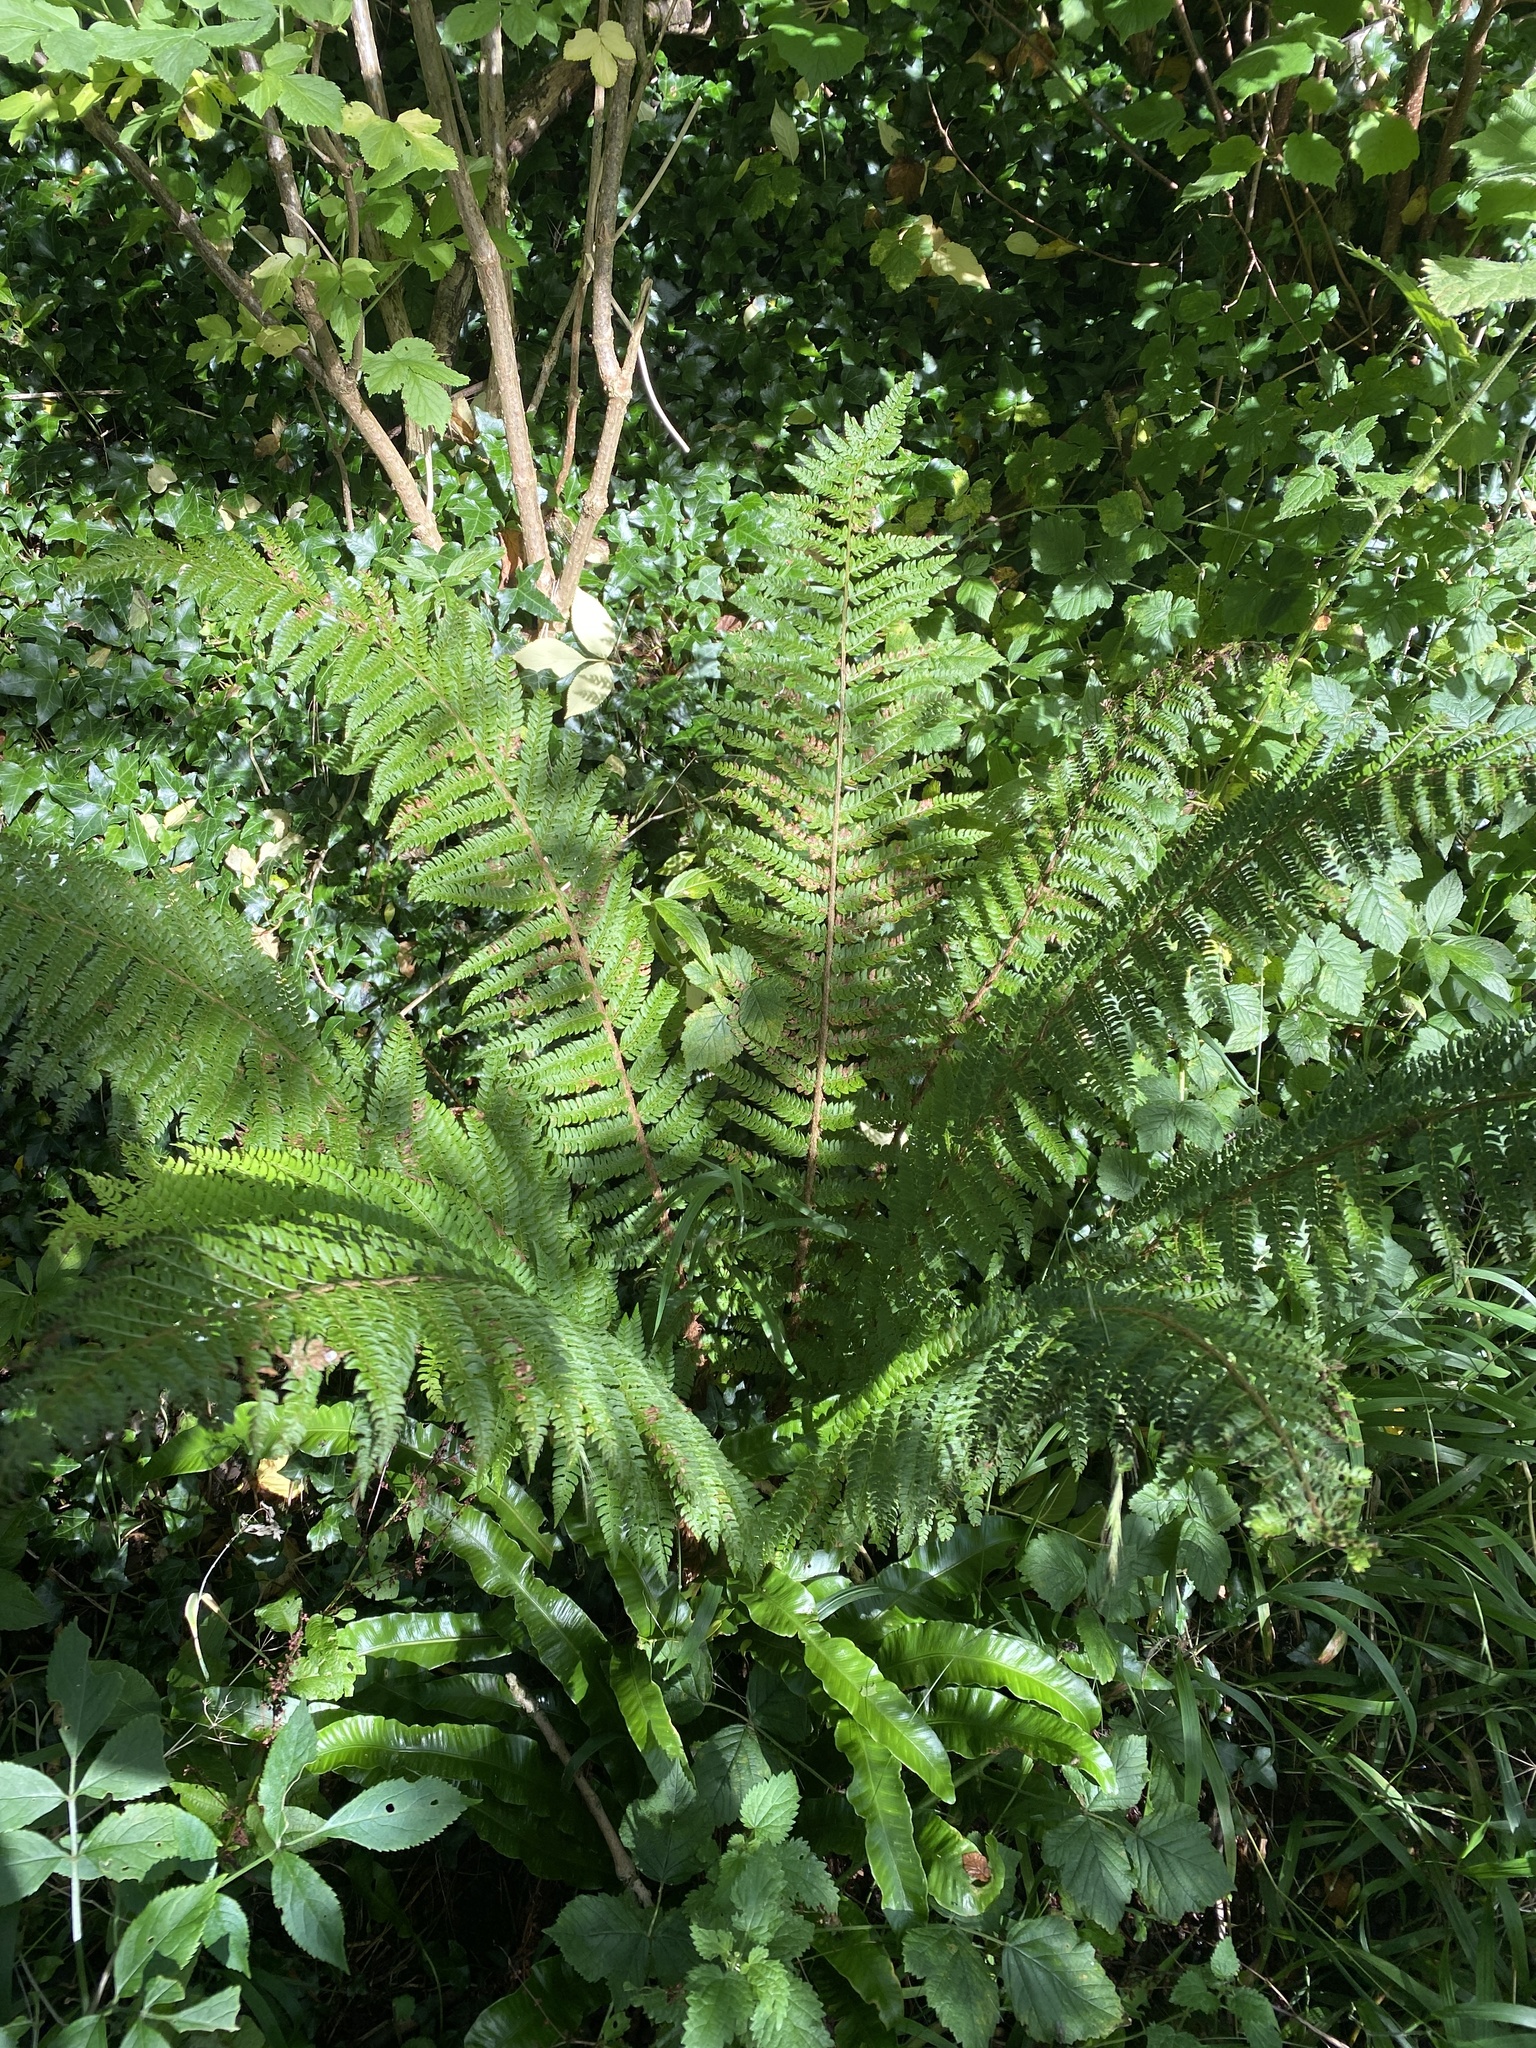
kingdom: Plantae
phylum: Tracheophyta
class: Polypodiopsida
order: Polypodiales
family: Dryopteridaceae
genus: Polystichum
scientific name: Polystichum setiferum
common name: Soft shield-fern
